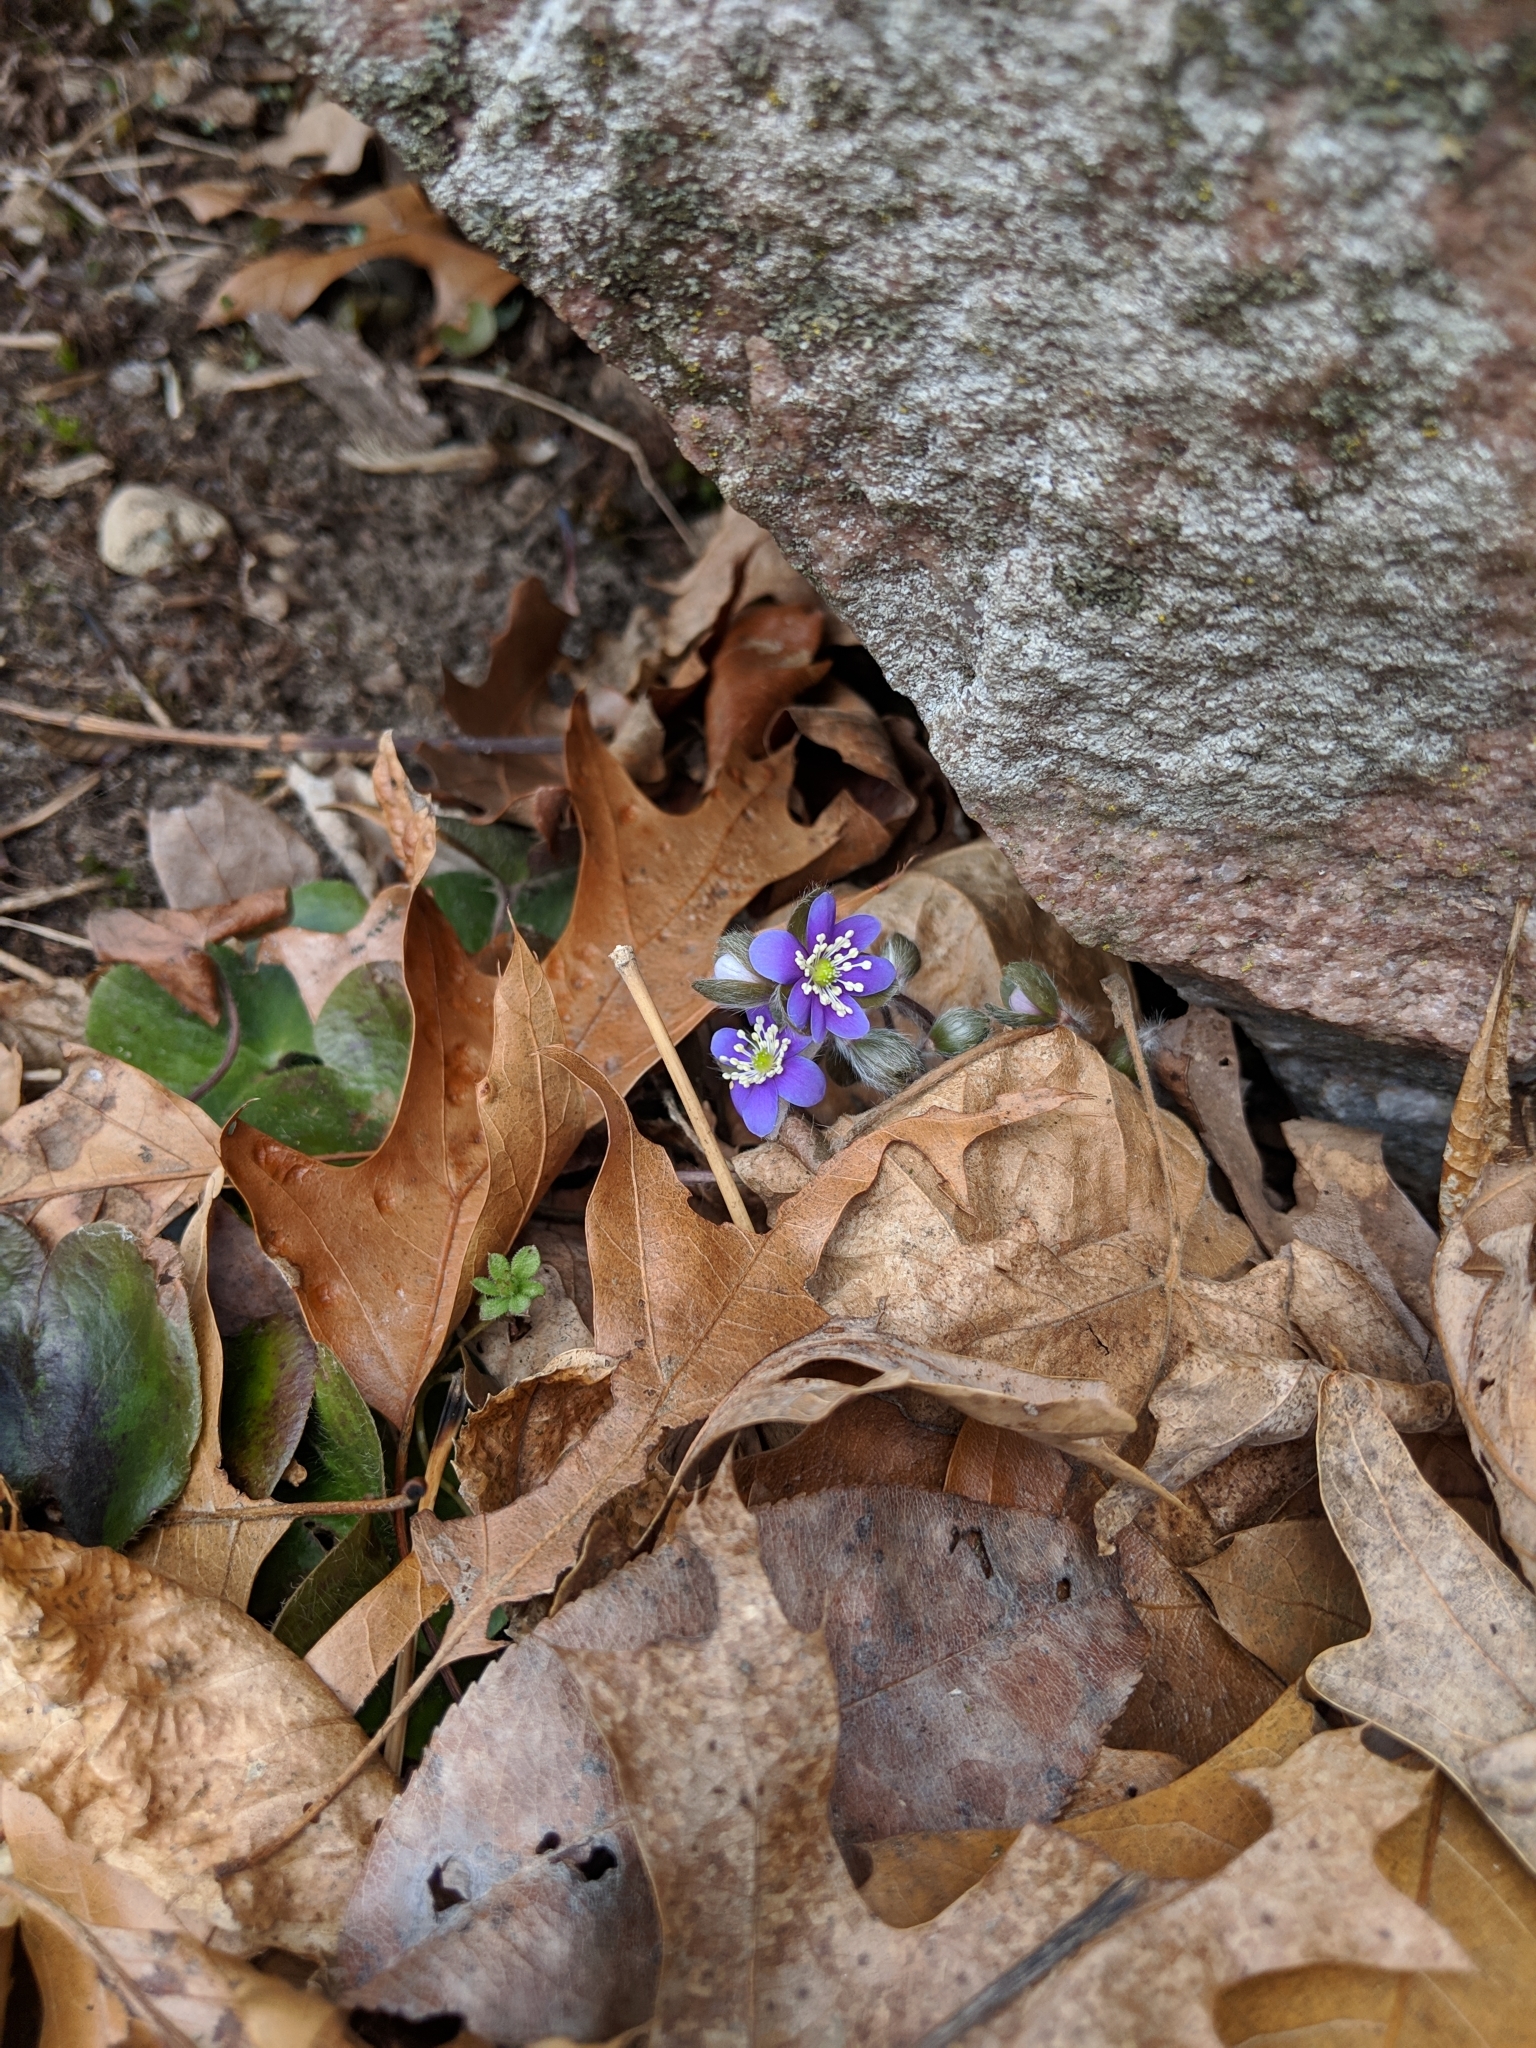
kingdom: Plantae
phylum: Tracheophyta
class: Magnoliopsida
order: Ranunculales
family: Ranunculaceae
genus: Hepatica
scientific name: Hepatica americana
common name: American hepatica
